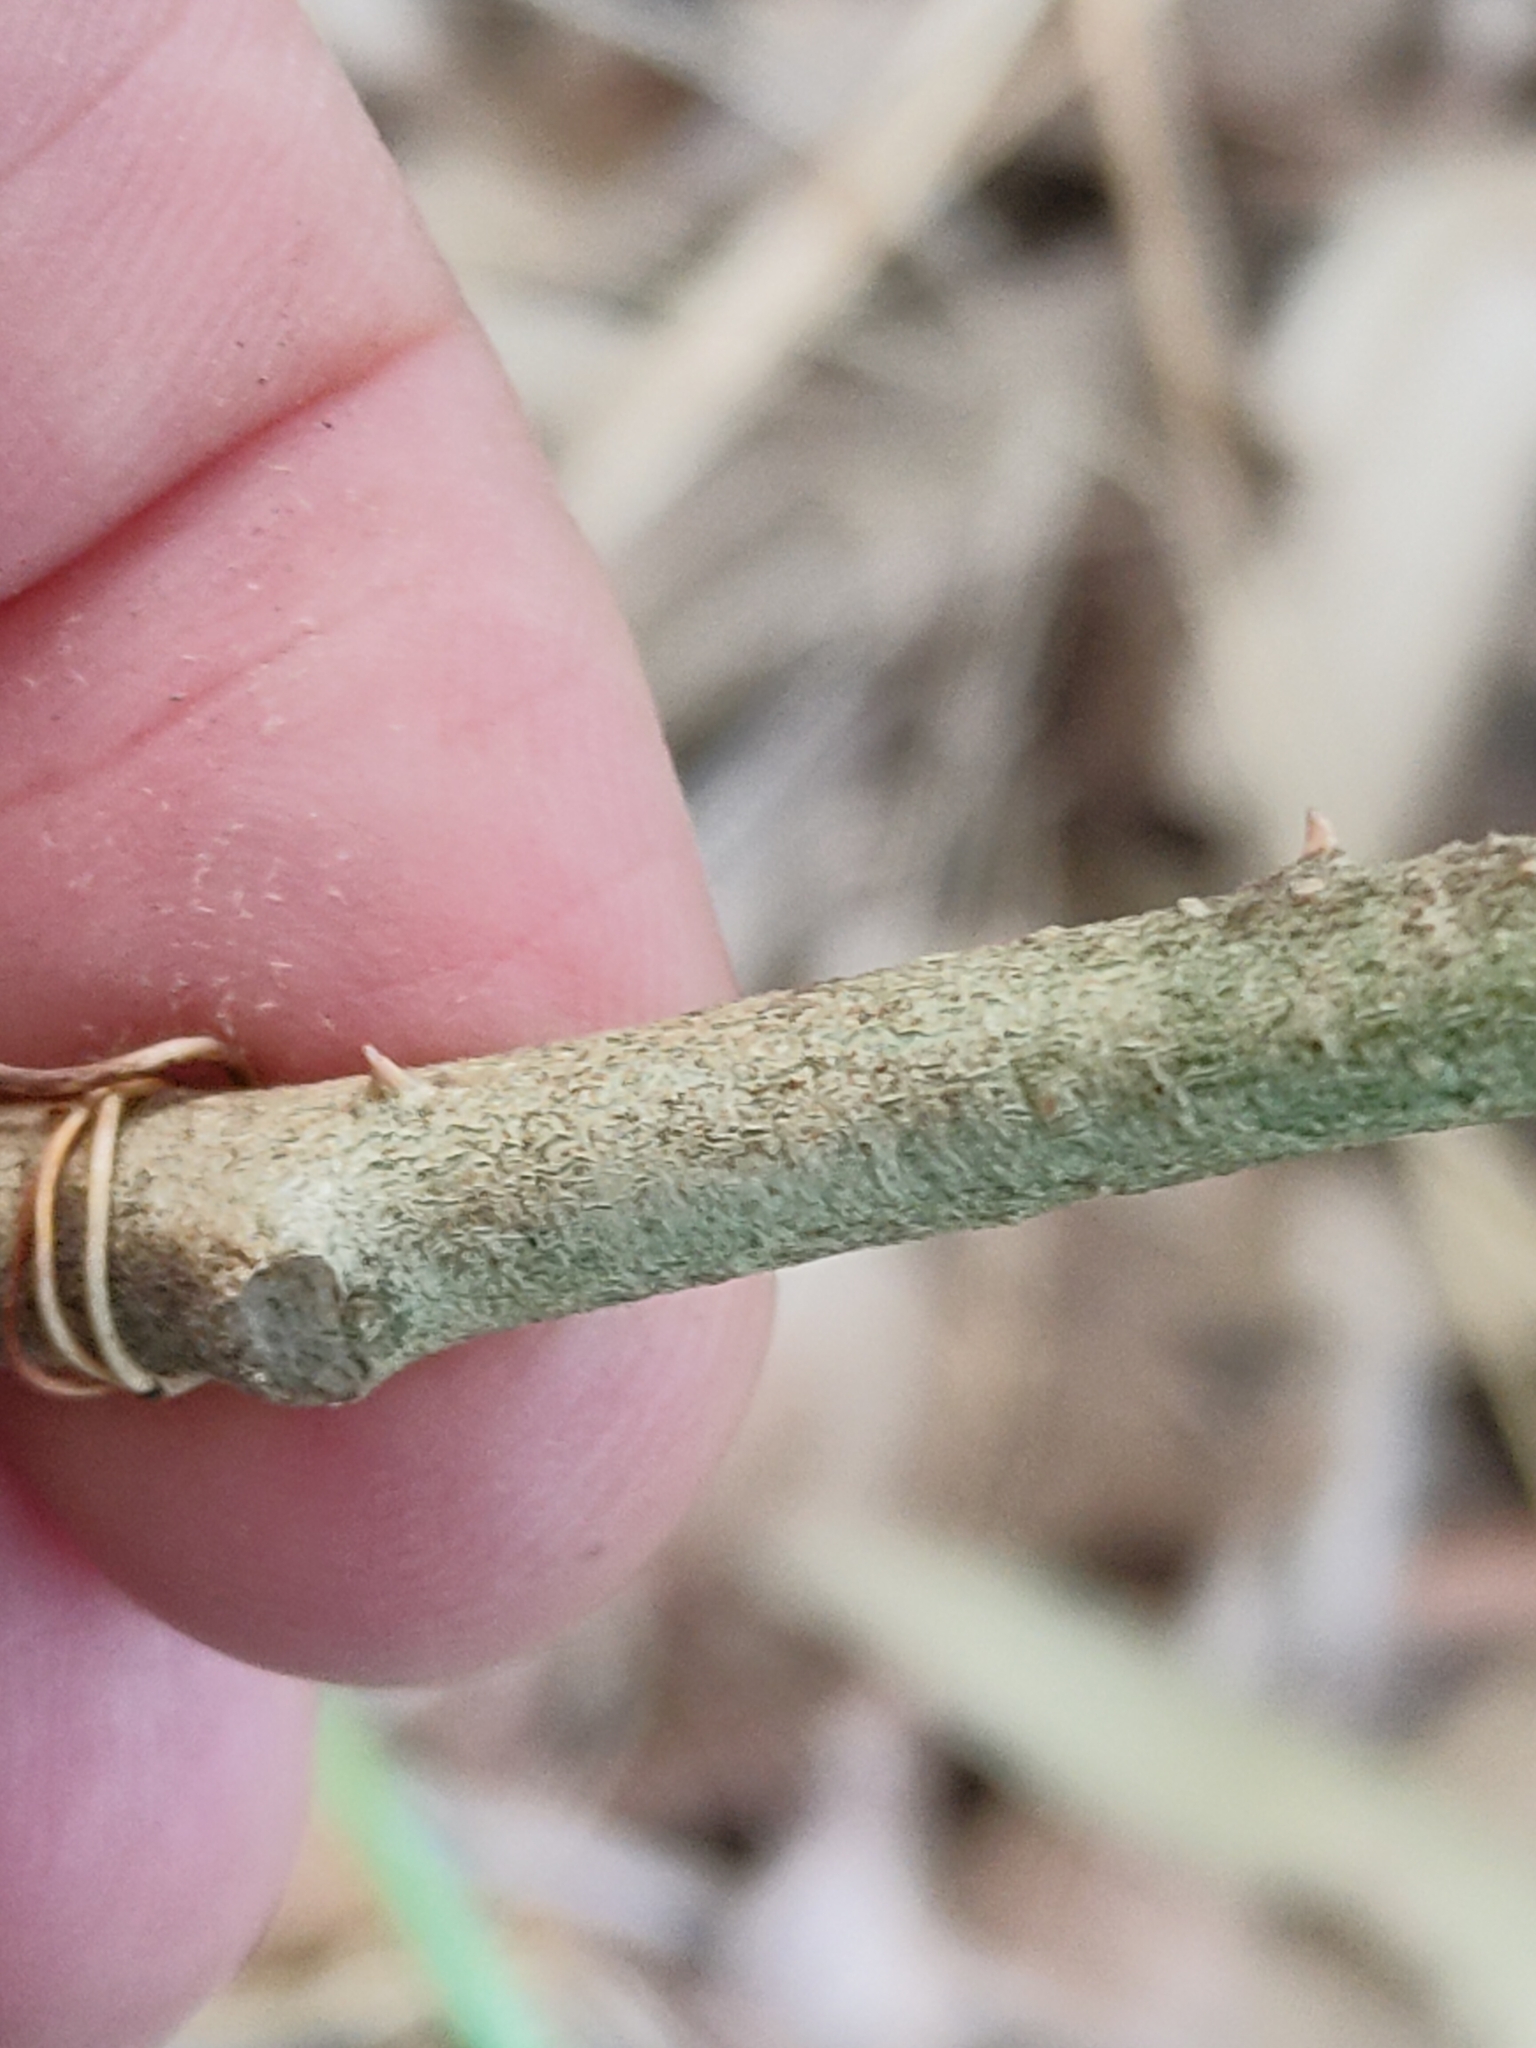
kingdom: Plantae
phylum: Tracheophyta
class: Magnoliopsida
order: Solanales
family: Solanaceae
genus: Solanum
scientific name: Solanum torvum
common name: Turkey berry
